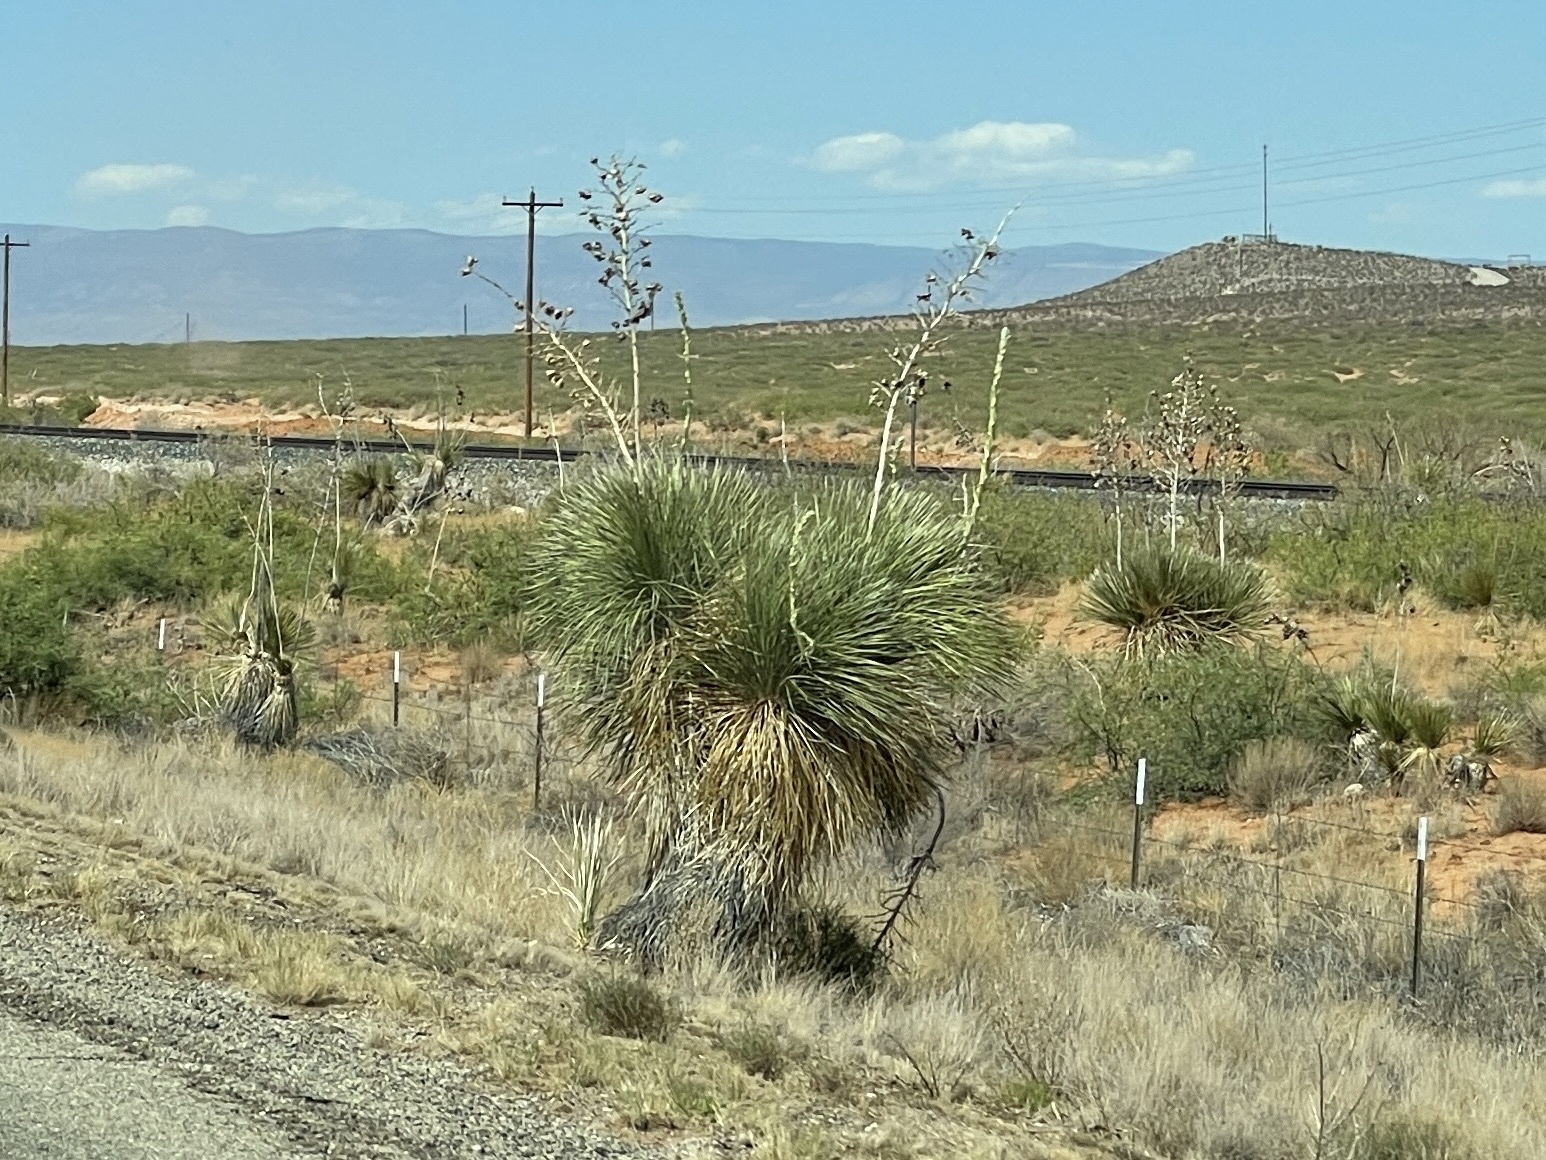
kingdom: Plantae
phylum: Tracheophyta
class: Liliopsida
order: Asparagales
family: Asparagaceae
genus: Yucca
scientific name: Yucca elata
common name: Palmella
